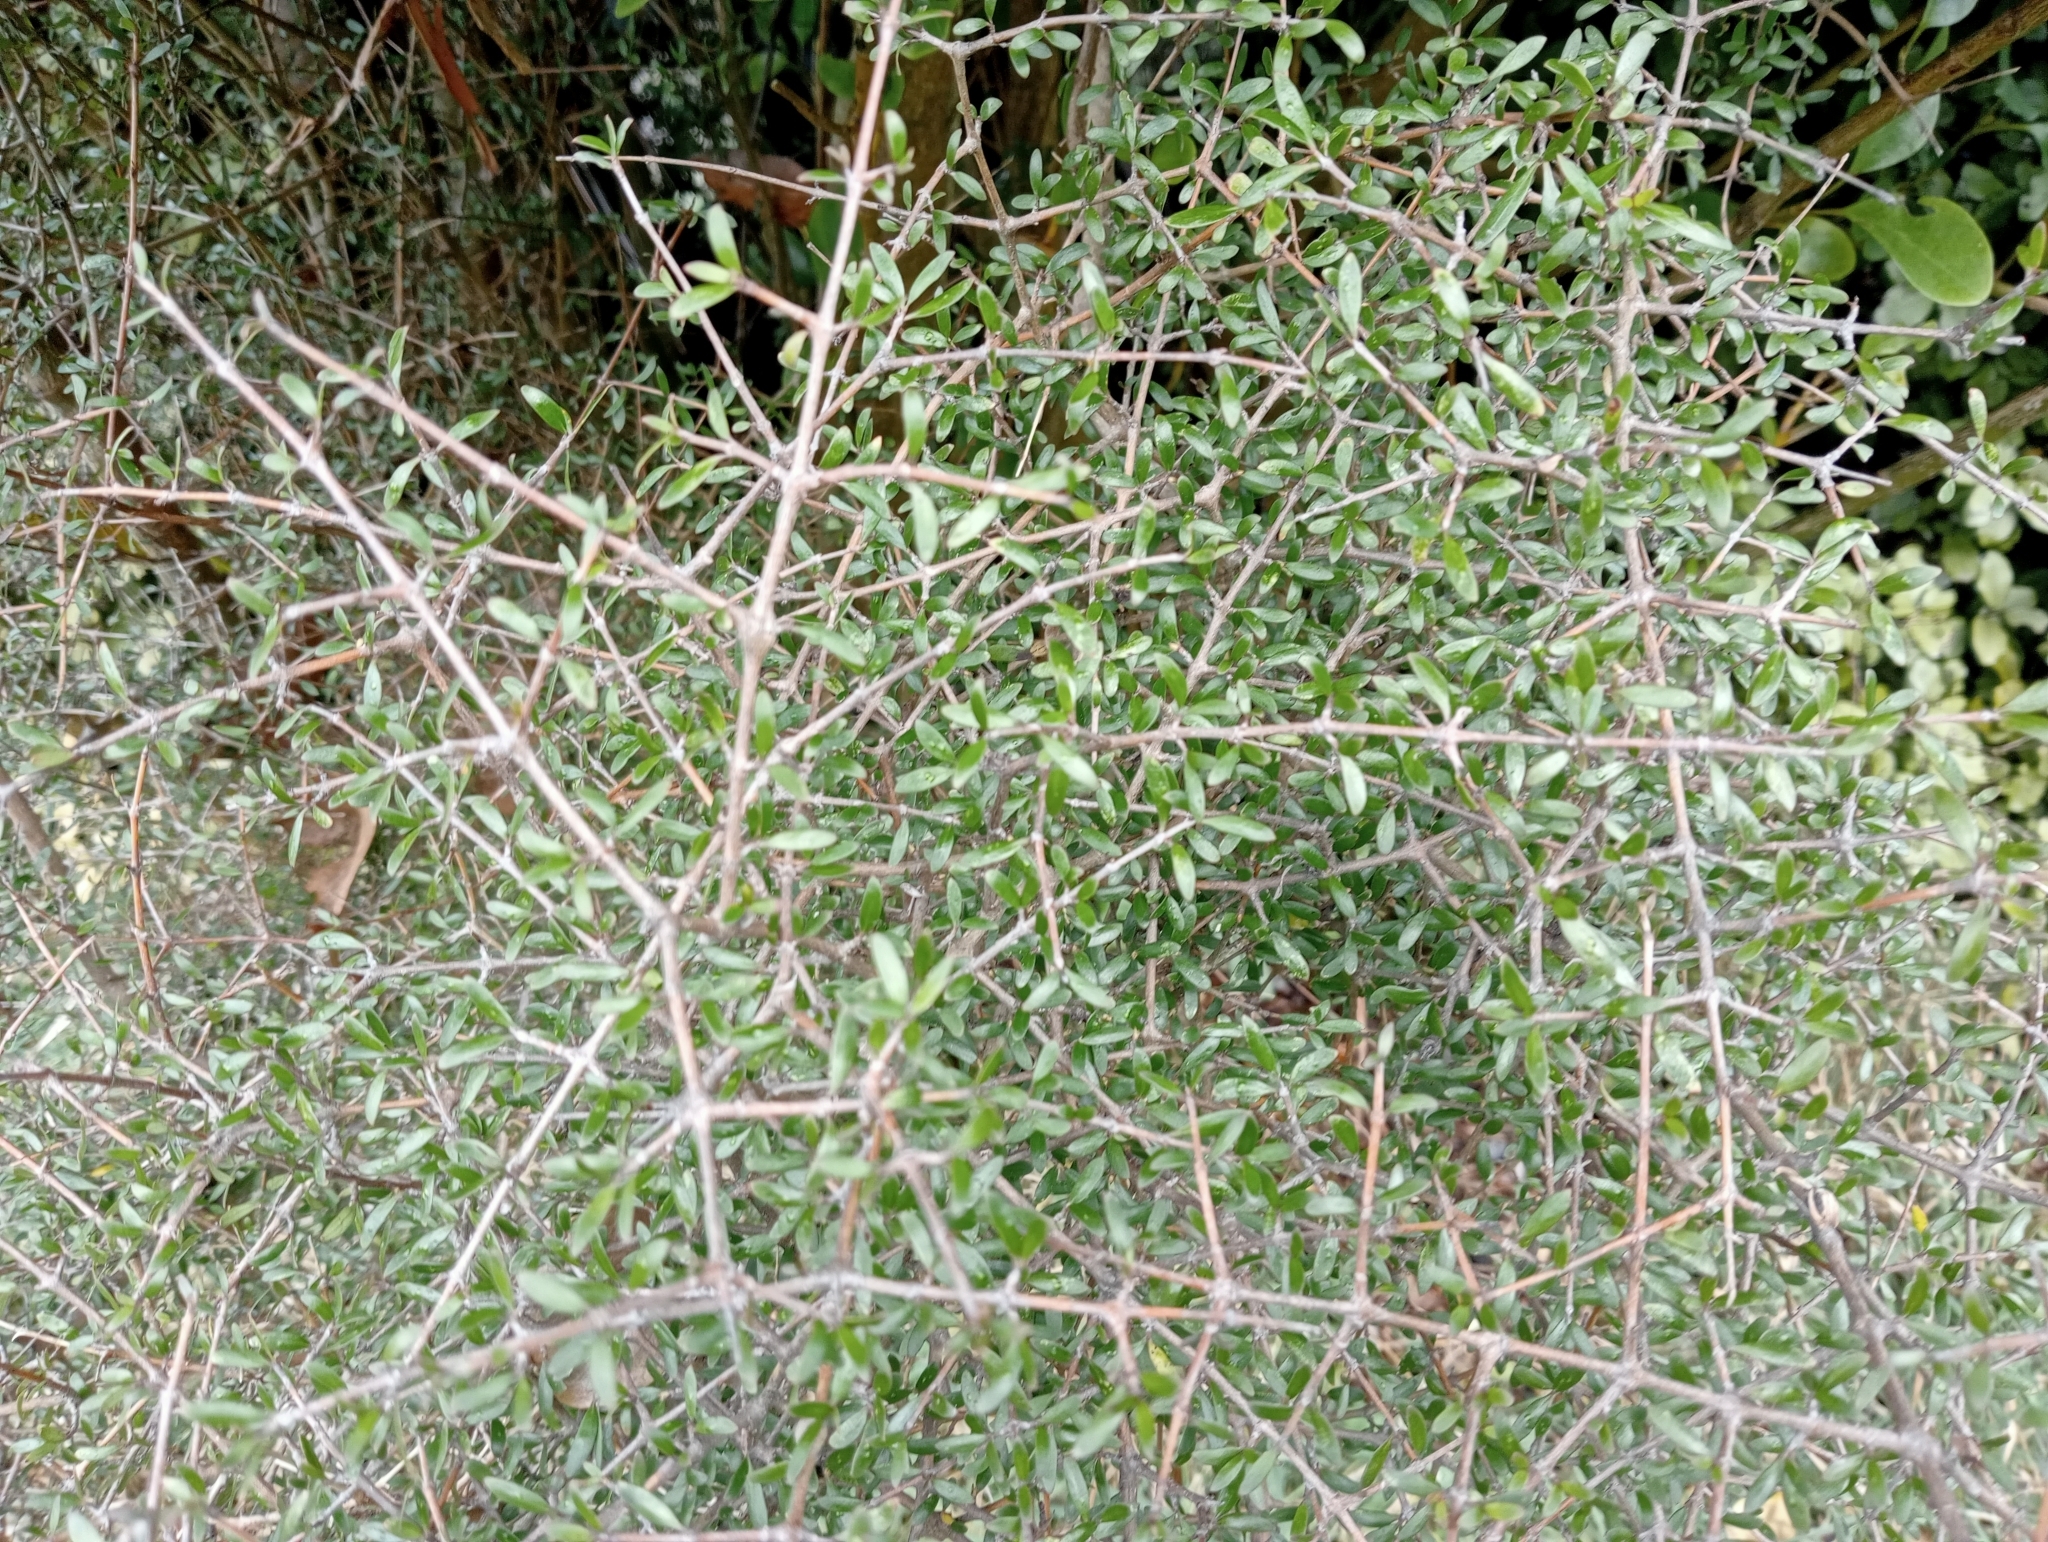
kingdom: Plantae
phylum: Tracheophyta
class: Magnoliopsida
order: Gentianales
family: Rubiaceae
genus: Coprosma
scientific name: Coprosma propinqua
